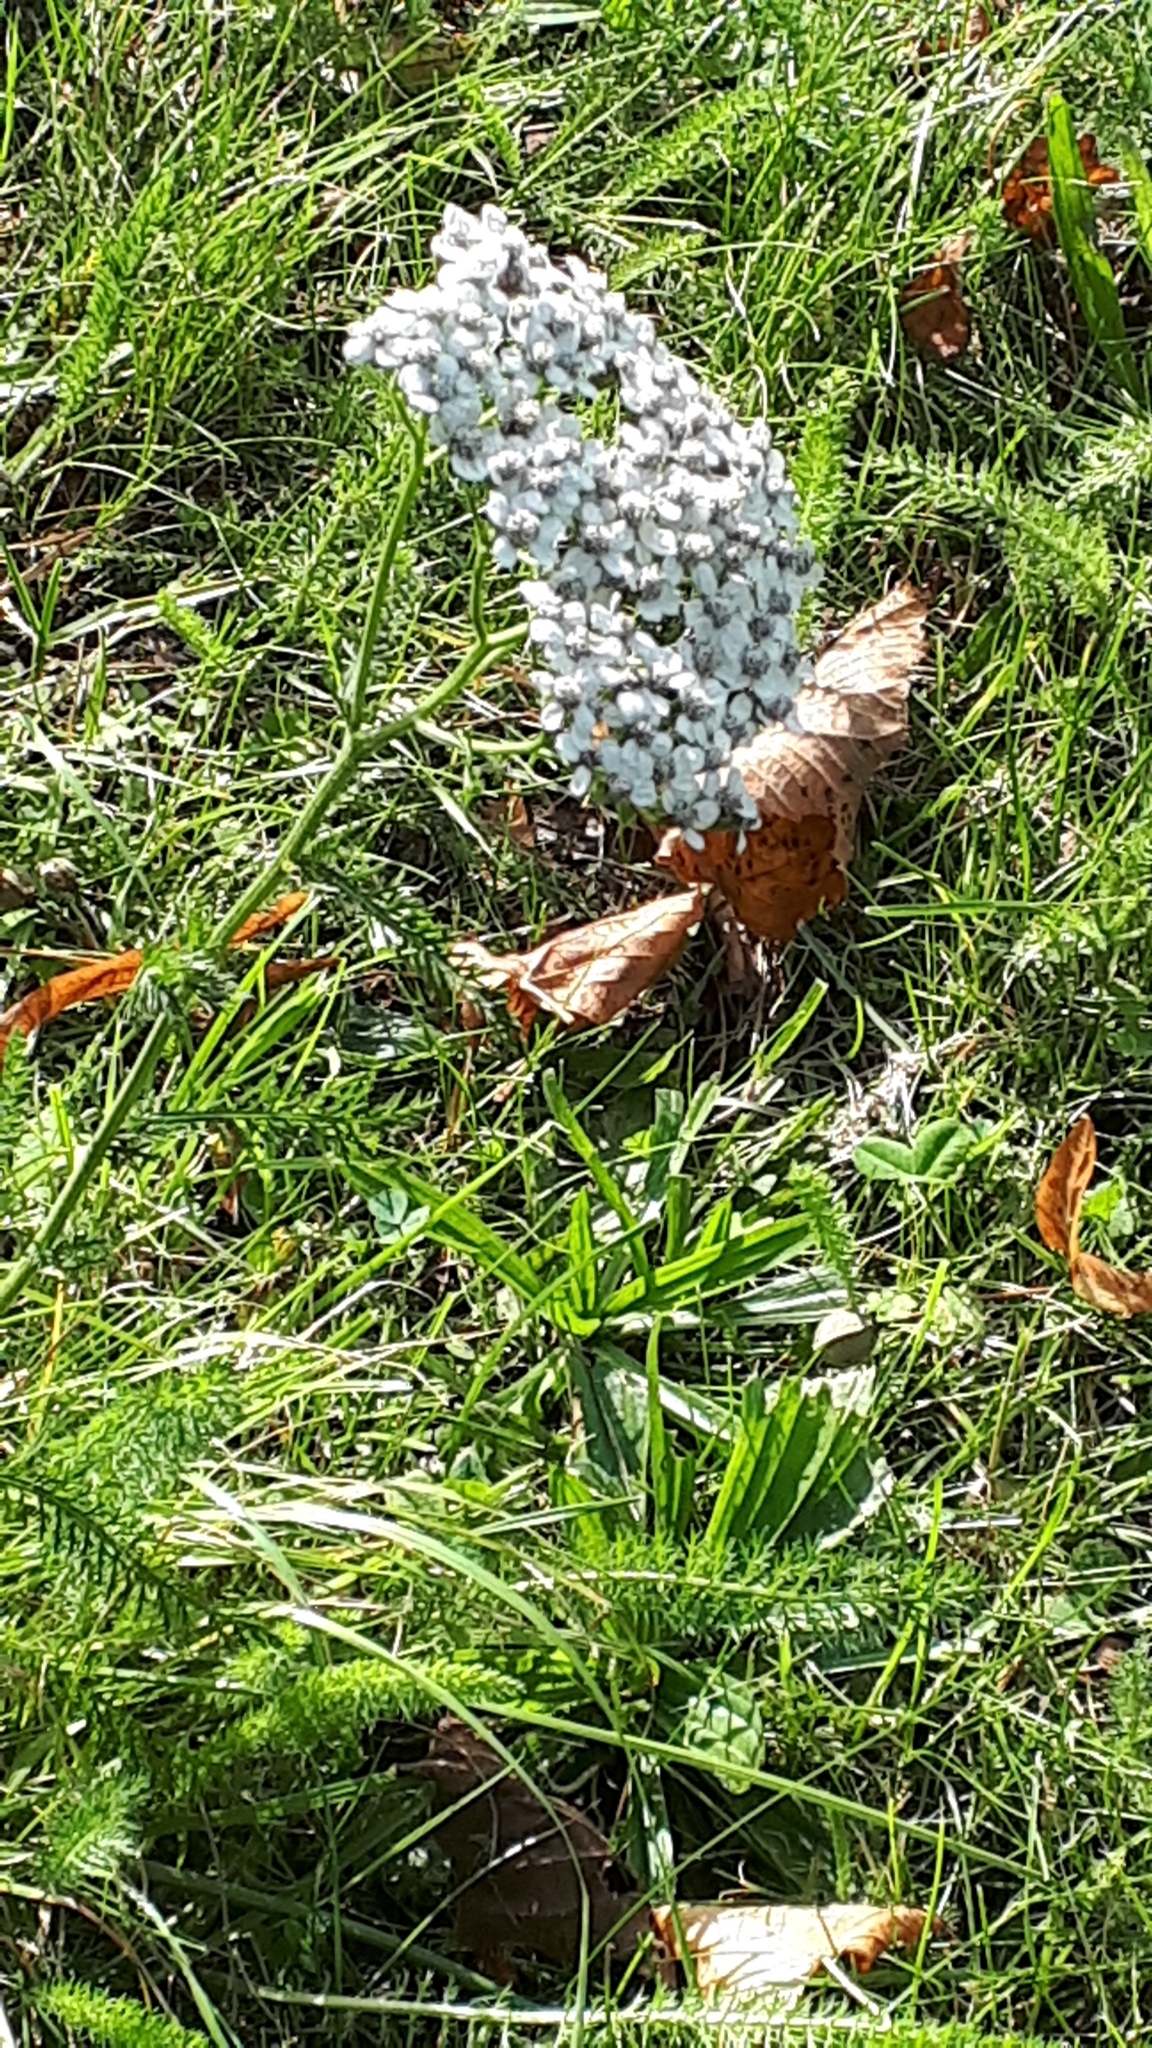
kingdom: Plantae
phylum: Tracheophyta
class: Magnoliopsida
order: Asterales
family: Asteraceae
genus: Achillea
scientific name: Achillea millefolium
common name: Yarrow
